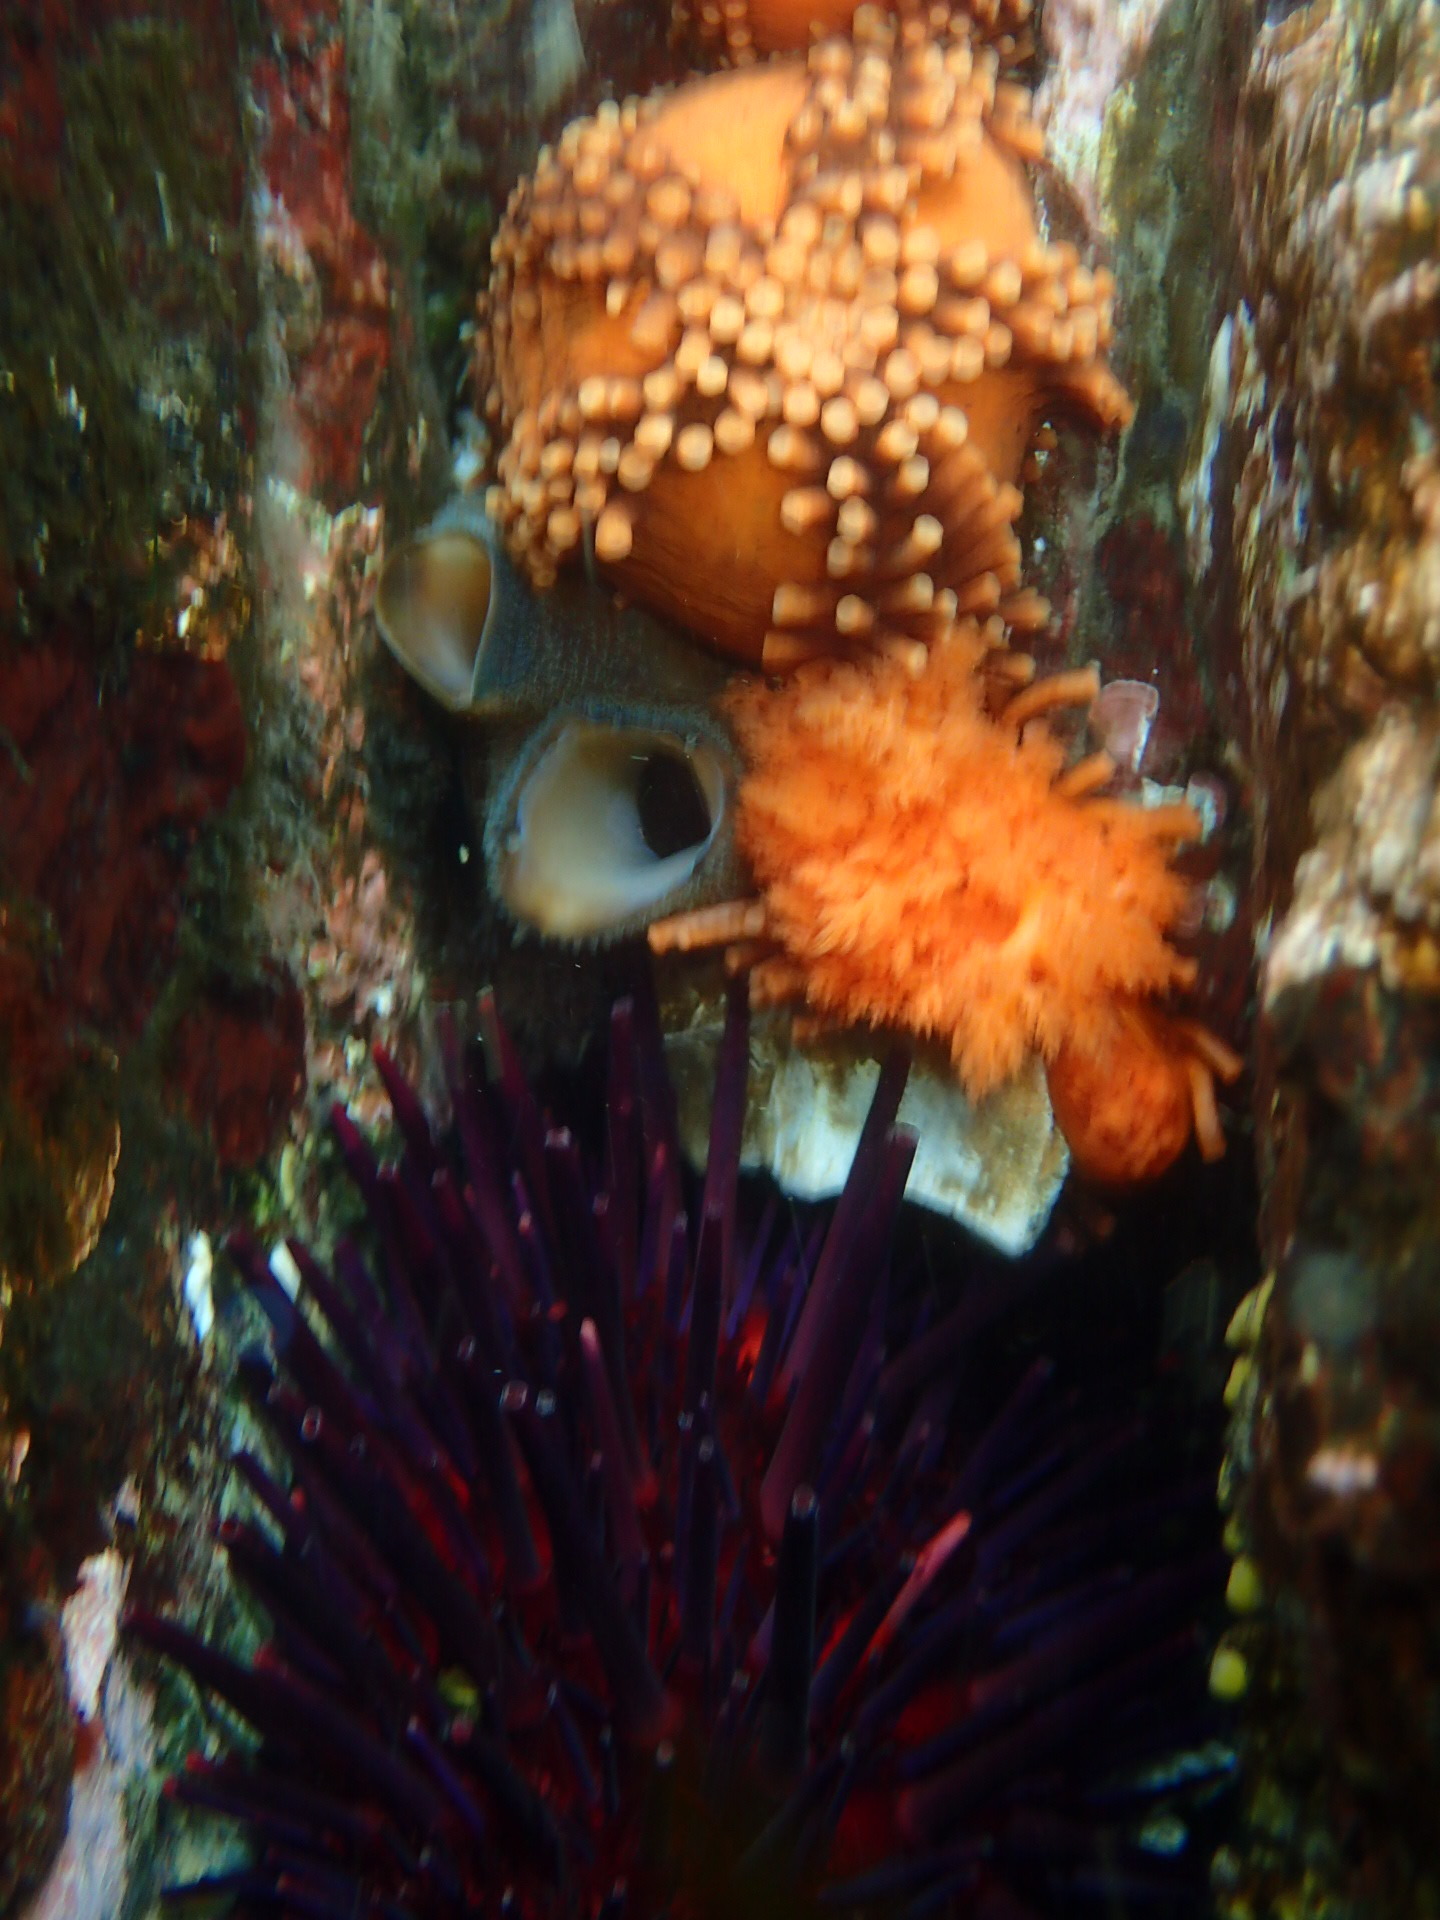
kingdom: Animalia
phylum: Echinodermata
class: Echinoidea
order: Camarodonta
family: Strongylocentrotidae
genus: Mesocentrotus
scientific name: Mesocentrotus franciscanus
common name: Red sea urchin
